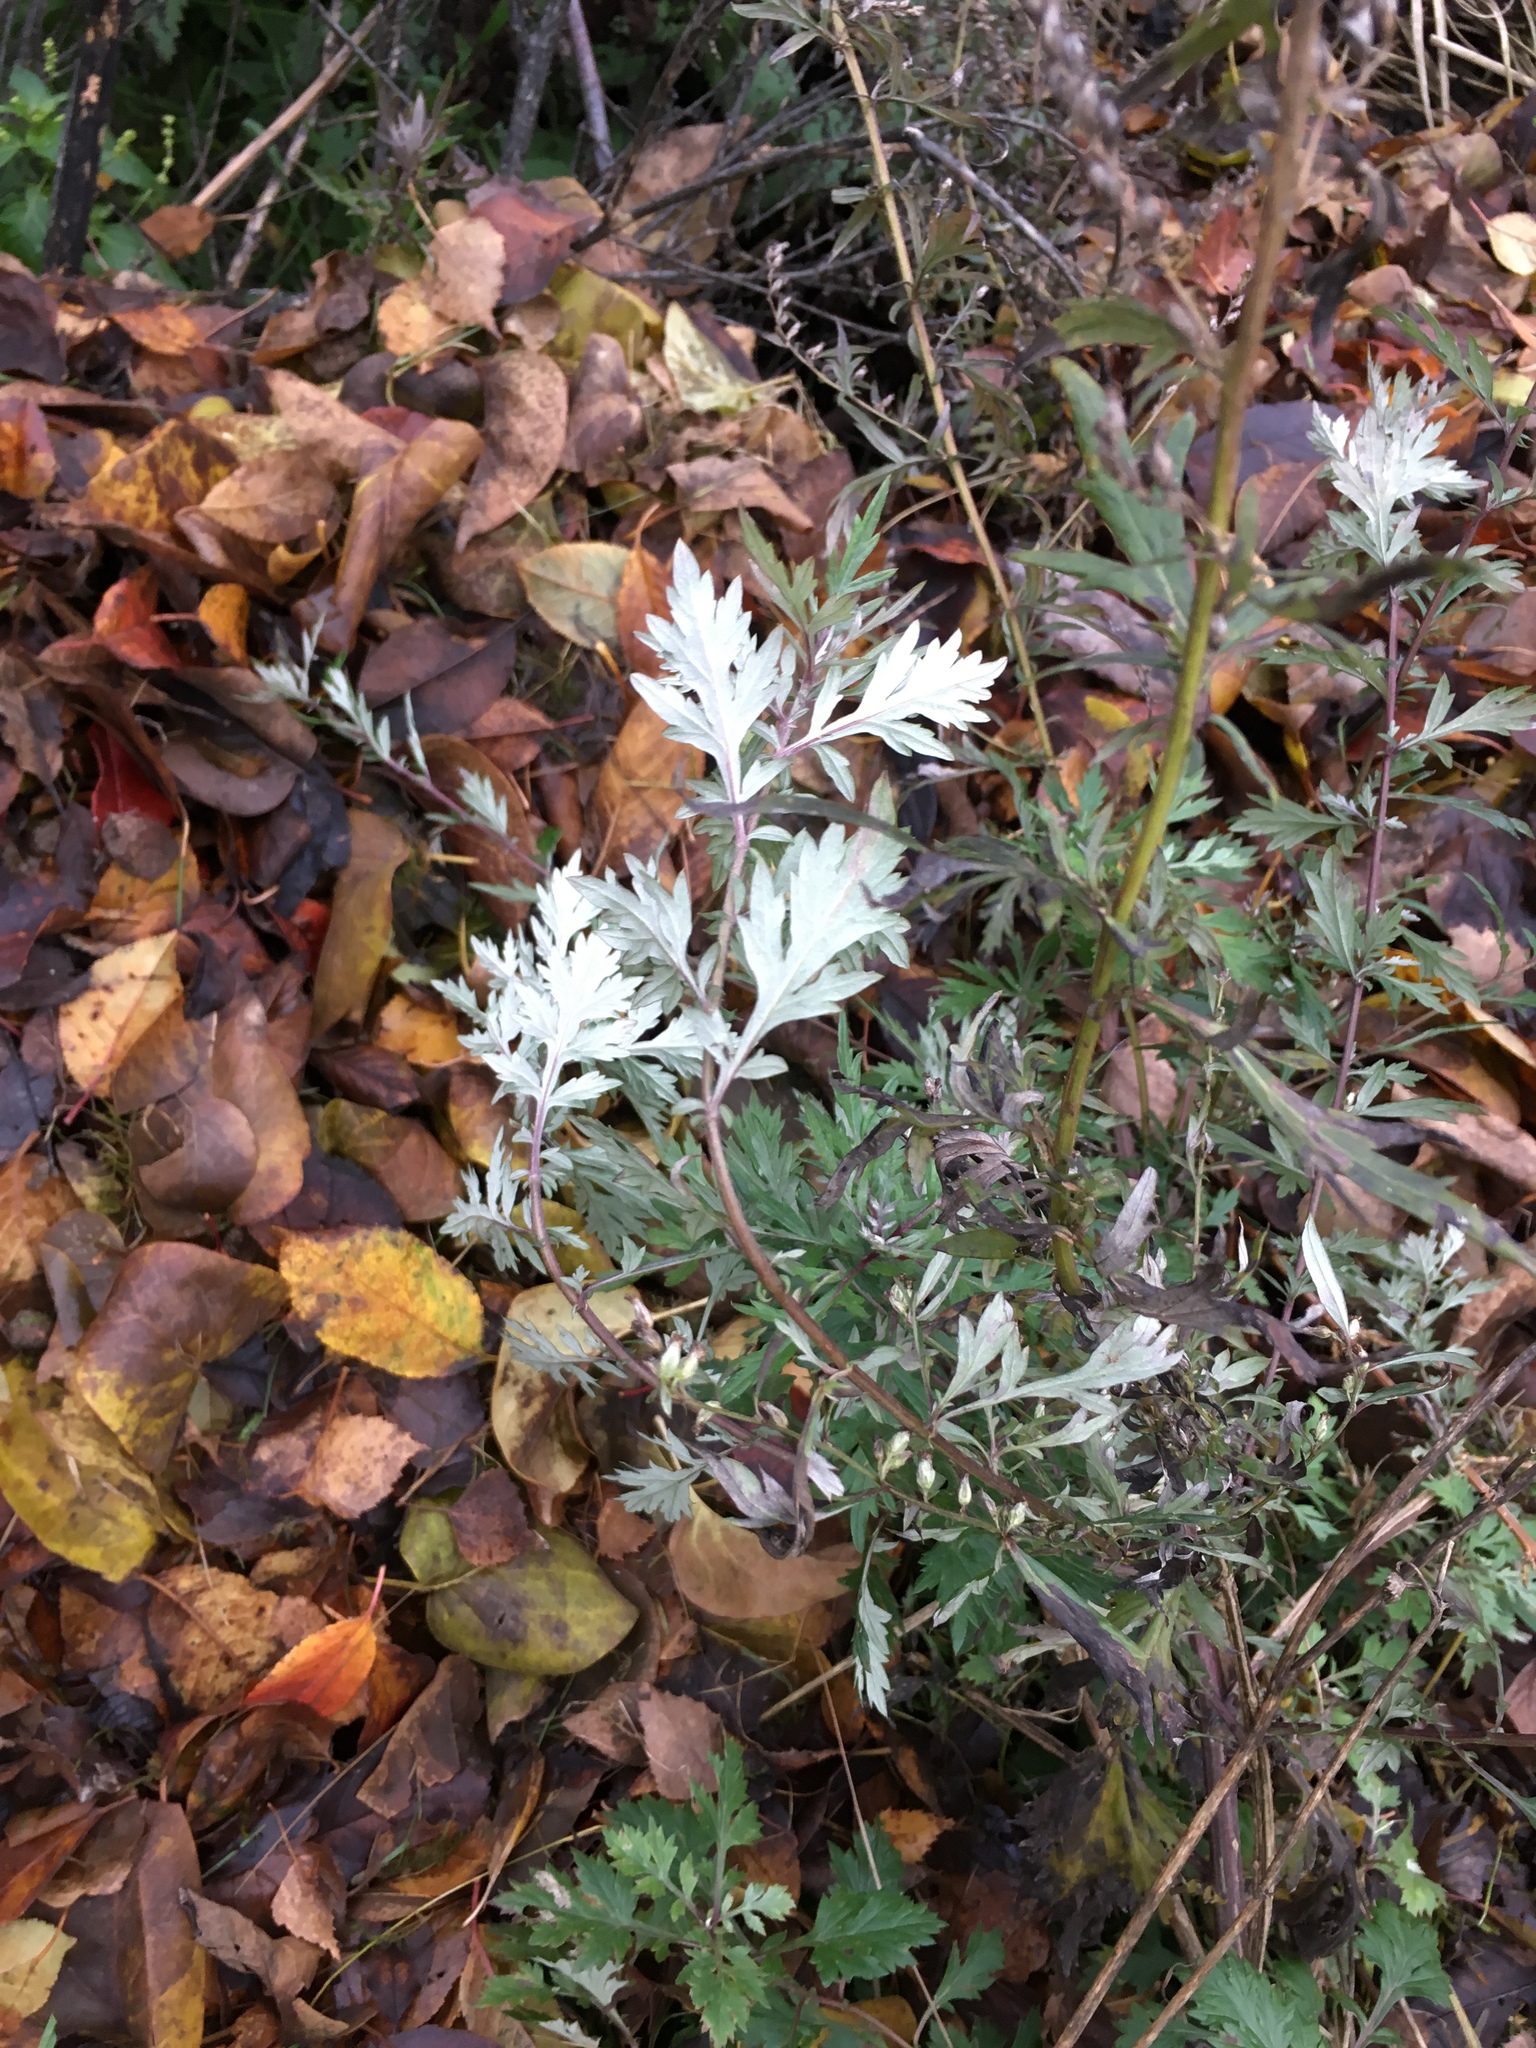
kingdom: Plantae
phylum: Tracheophyta
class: Magnoliopsida
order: Asterales
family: Asteraceae
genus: Artemisia
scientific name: Artemisia vulgaris
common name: Mugwort
